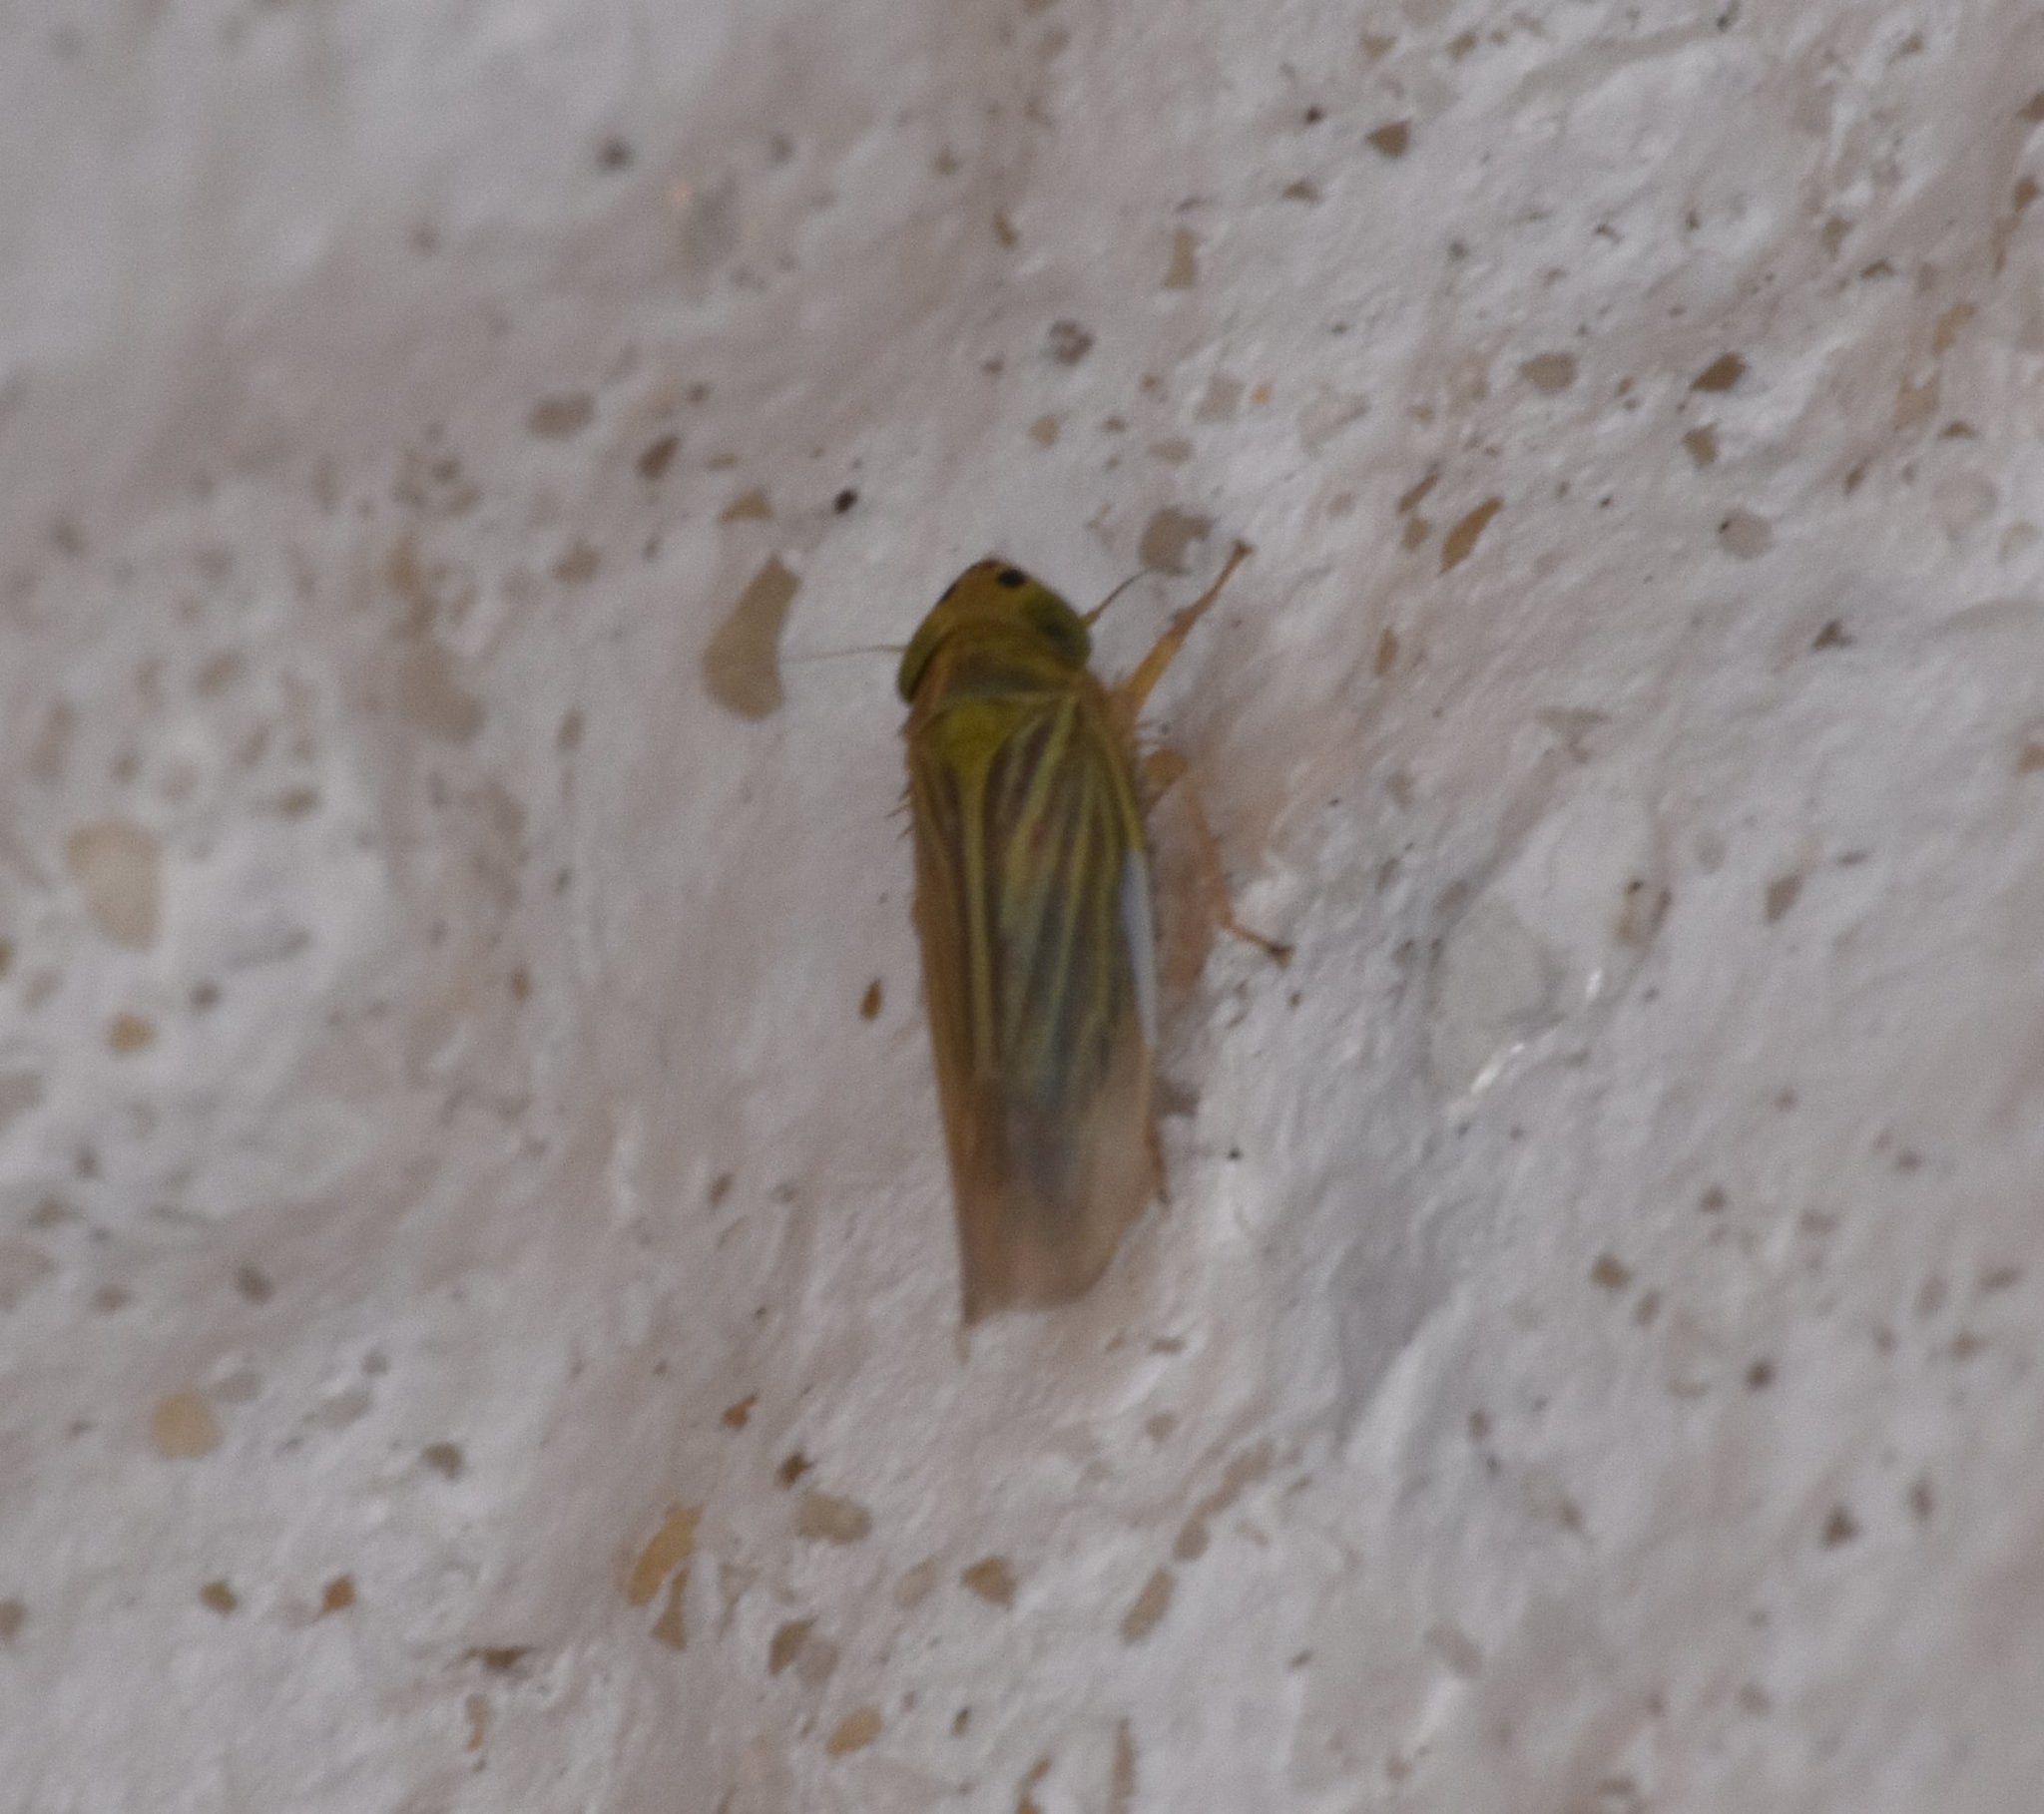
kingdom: Animalia
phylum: Arthropoda
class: Insecta
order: Hemiptera
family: Cicadellidae
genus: Graminella
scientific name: Graminella cognita
